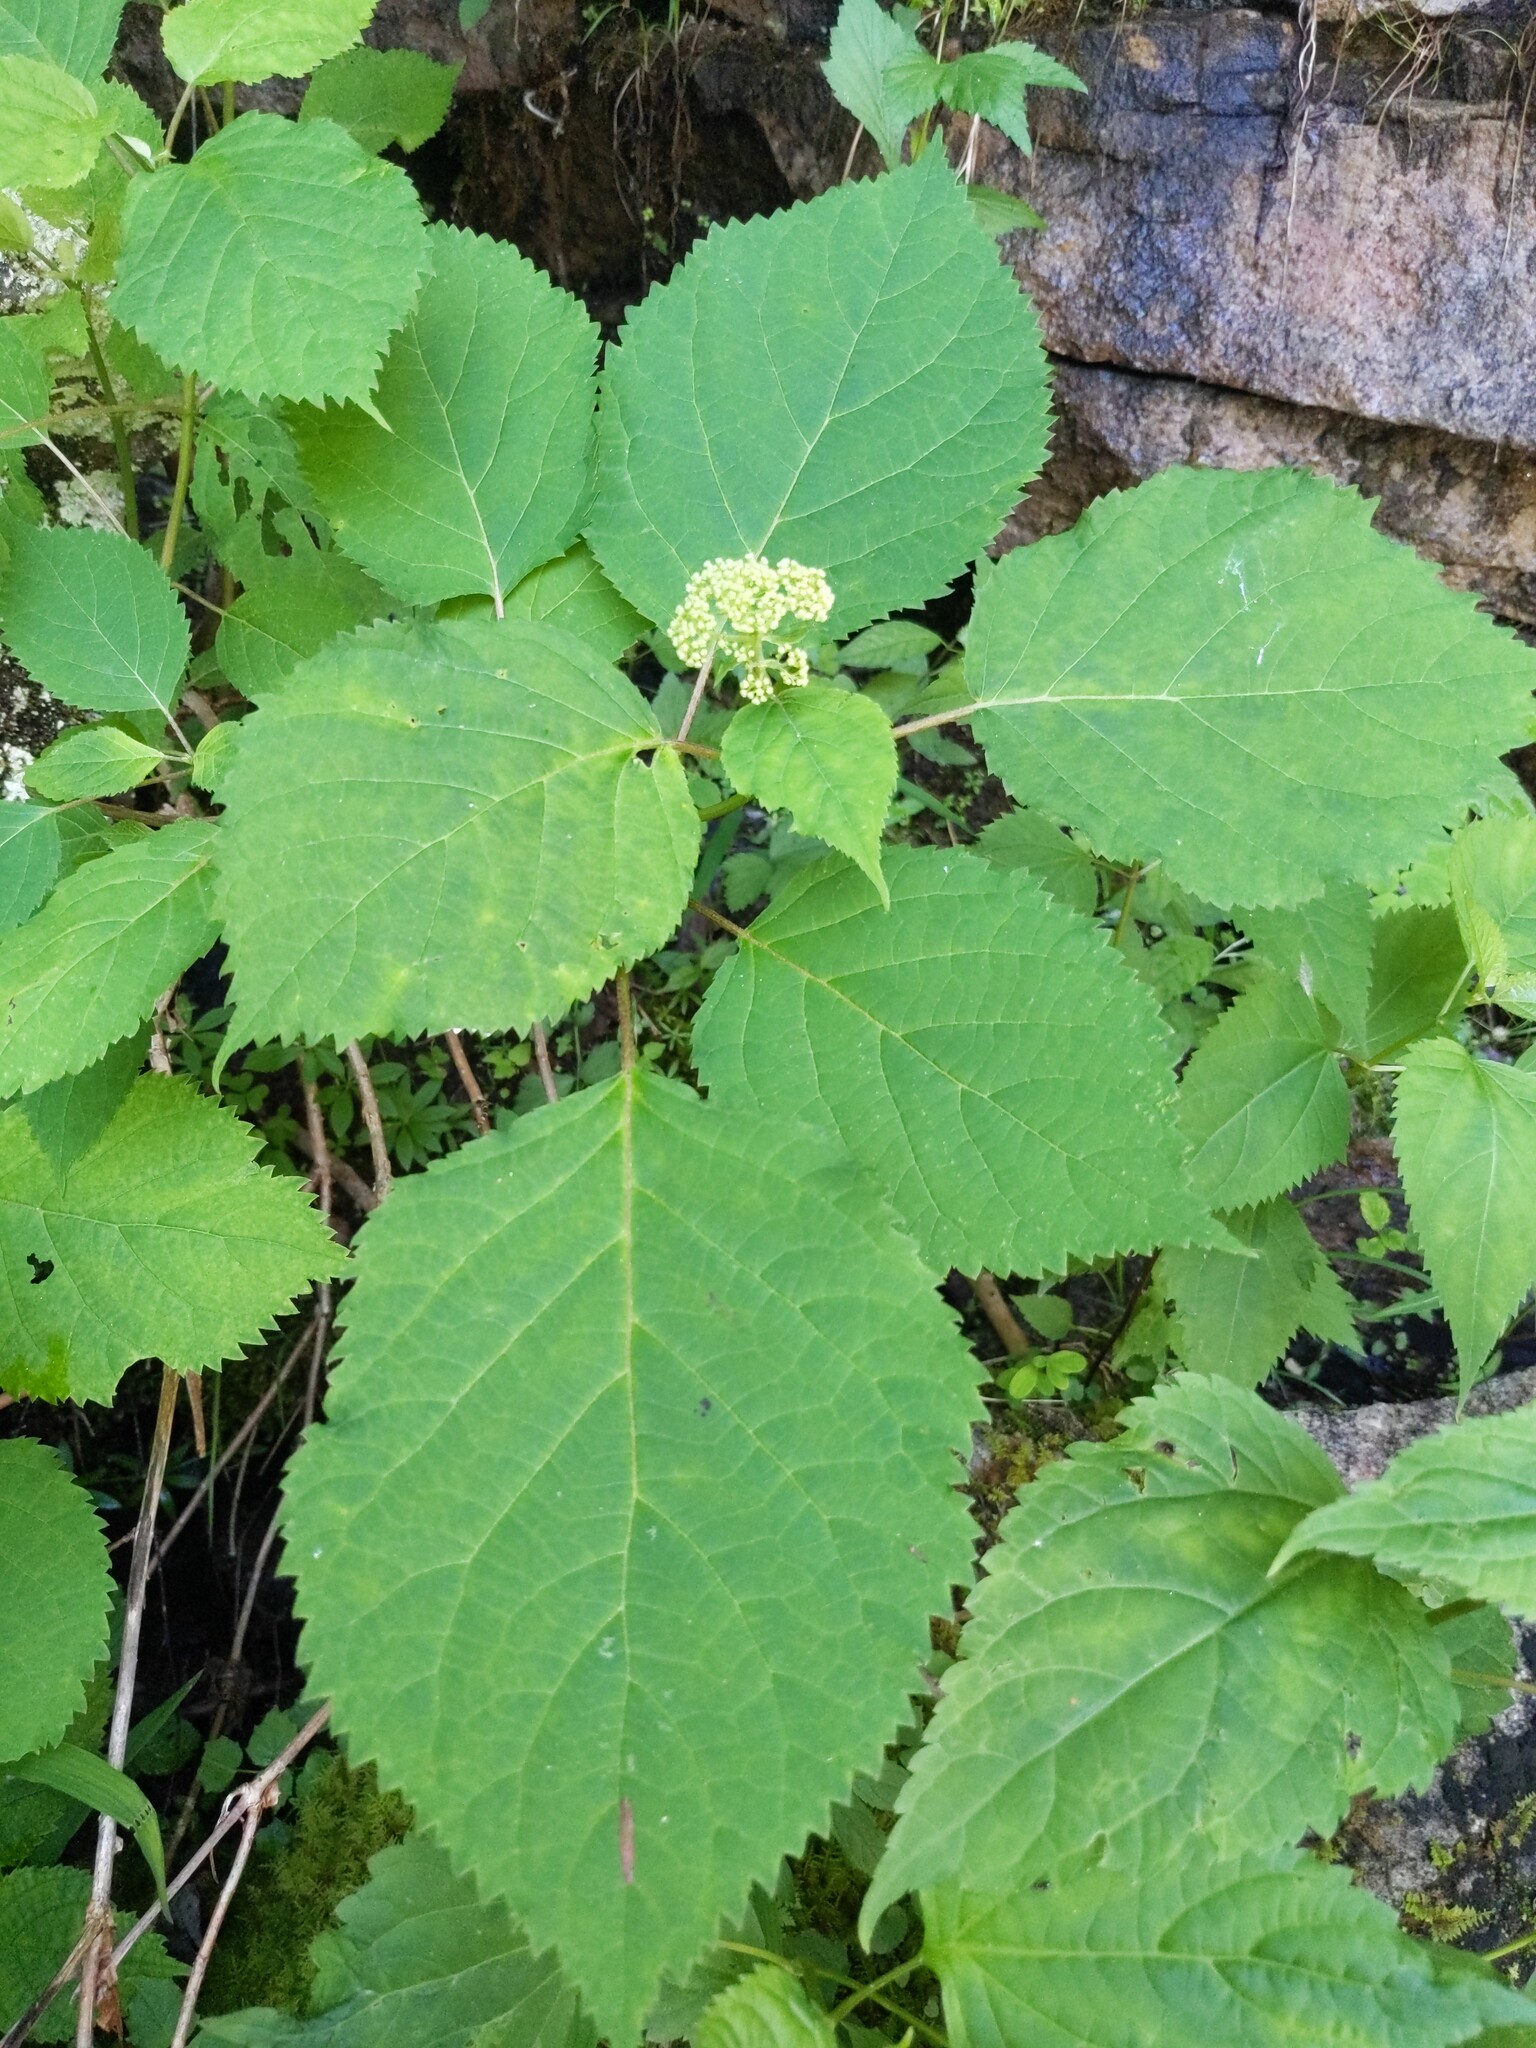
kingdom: Plantae
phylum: Tracheophyta
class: Magnoliopsida
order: Cornales
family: Hydrangeaceae
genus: Hydrangea
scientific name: Hydrangea arborescens
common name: Sevenbark
